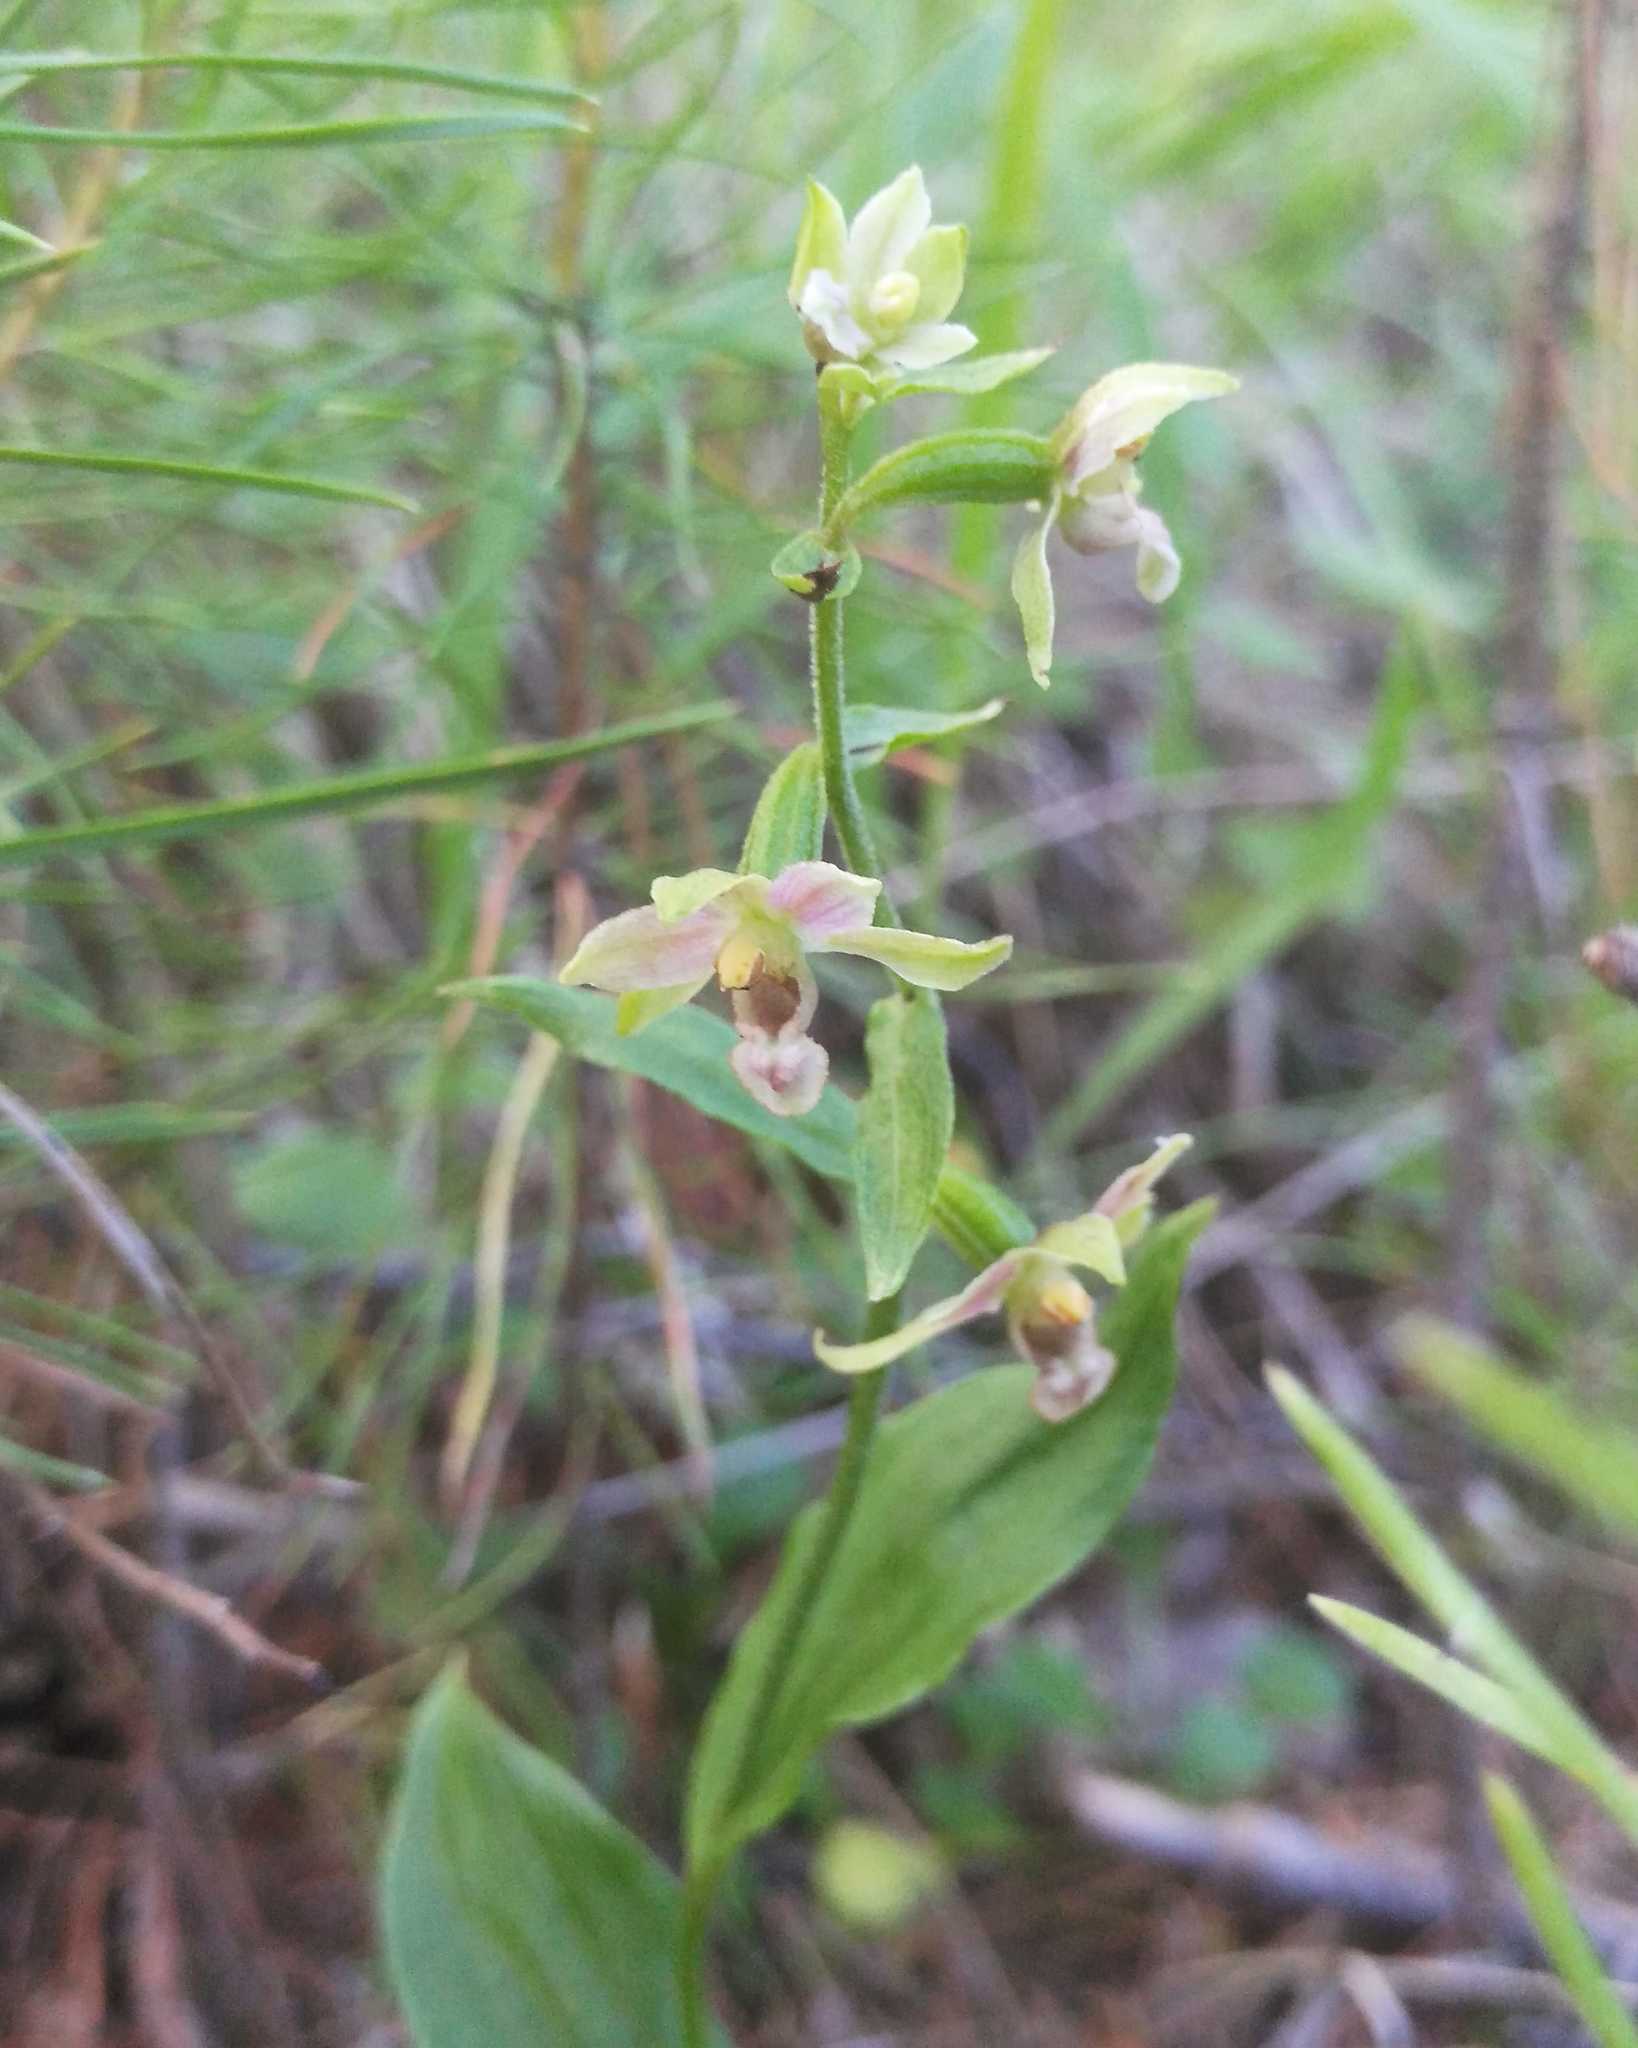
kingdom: Plantae
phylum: Tracheophyta
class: Liliopsida
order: Asparagales
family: Orchidaceae
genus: Epipactis
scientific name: Epipactis helleborine
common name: Broad-leaved helleborine
